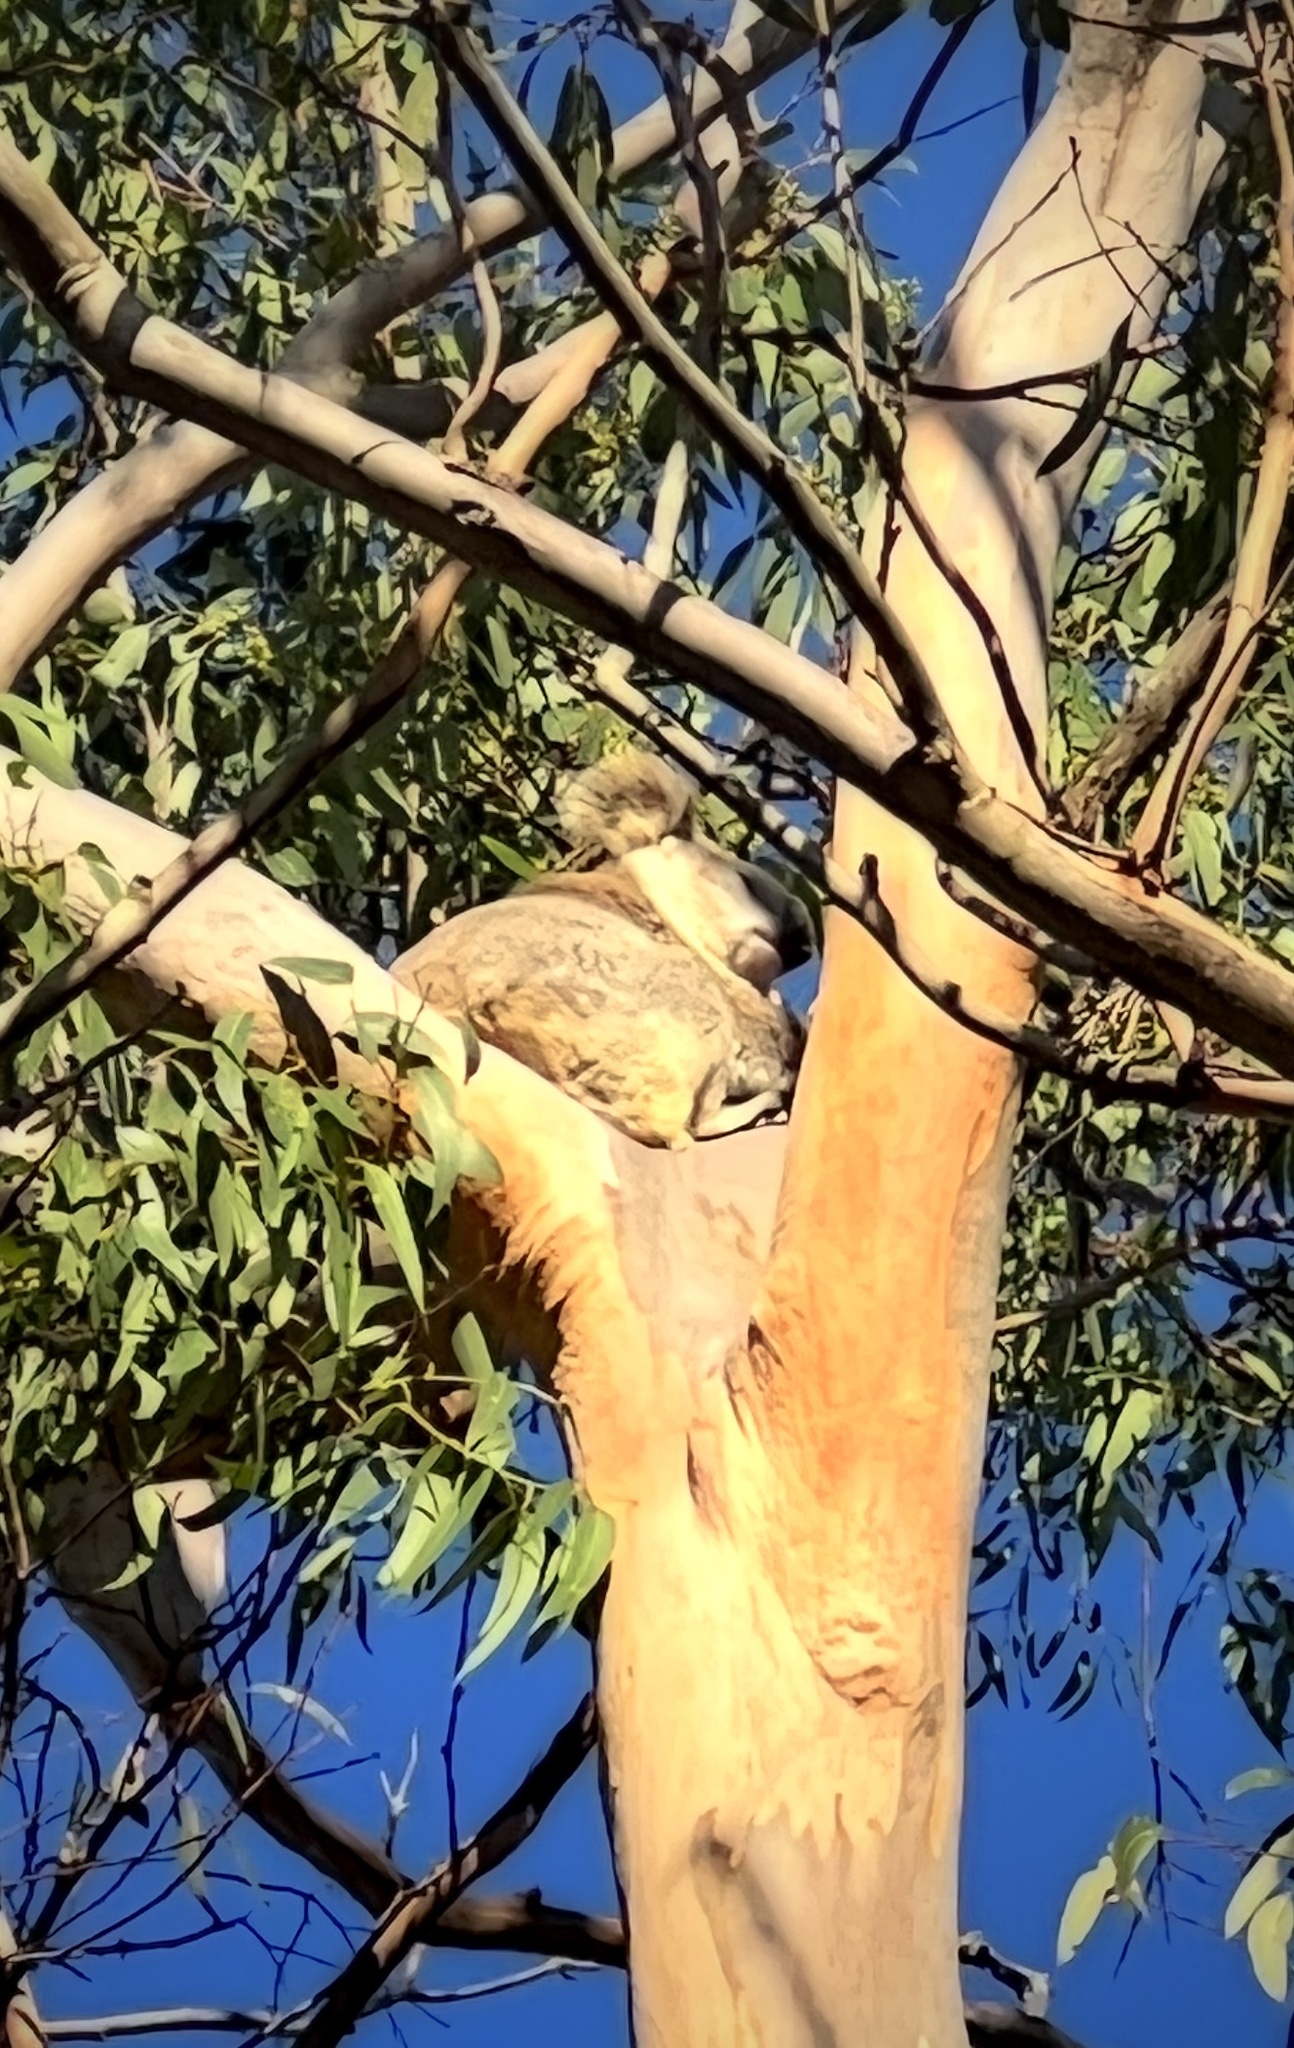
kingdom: Animalia
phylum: Chordata
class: Mammalia
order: Diprotodontia
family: Phascolarctidae
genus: Phascolarctos
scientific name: Phascolarctos cinereus
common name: Koala
